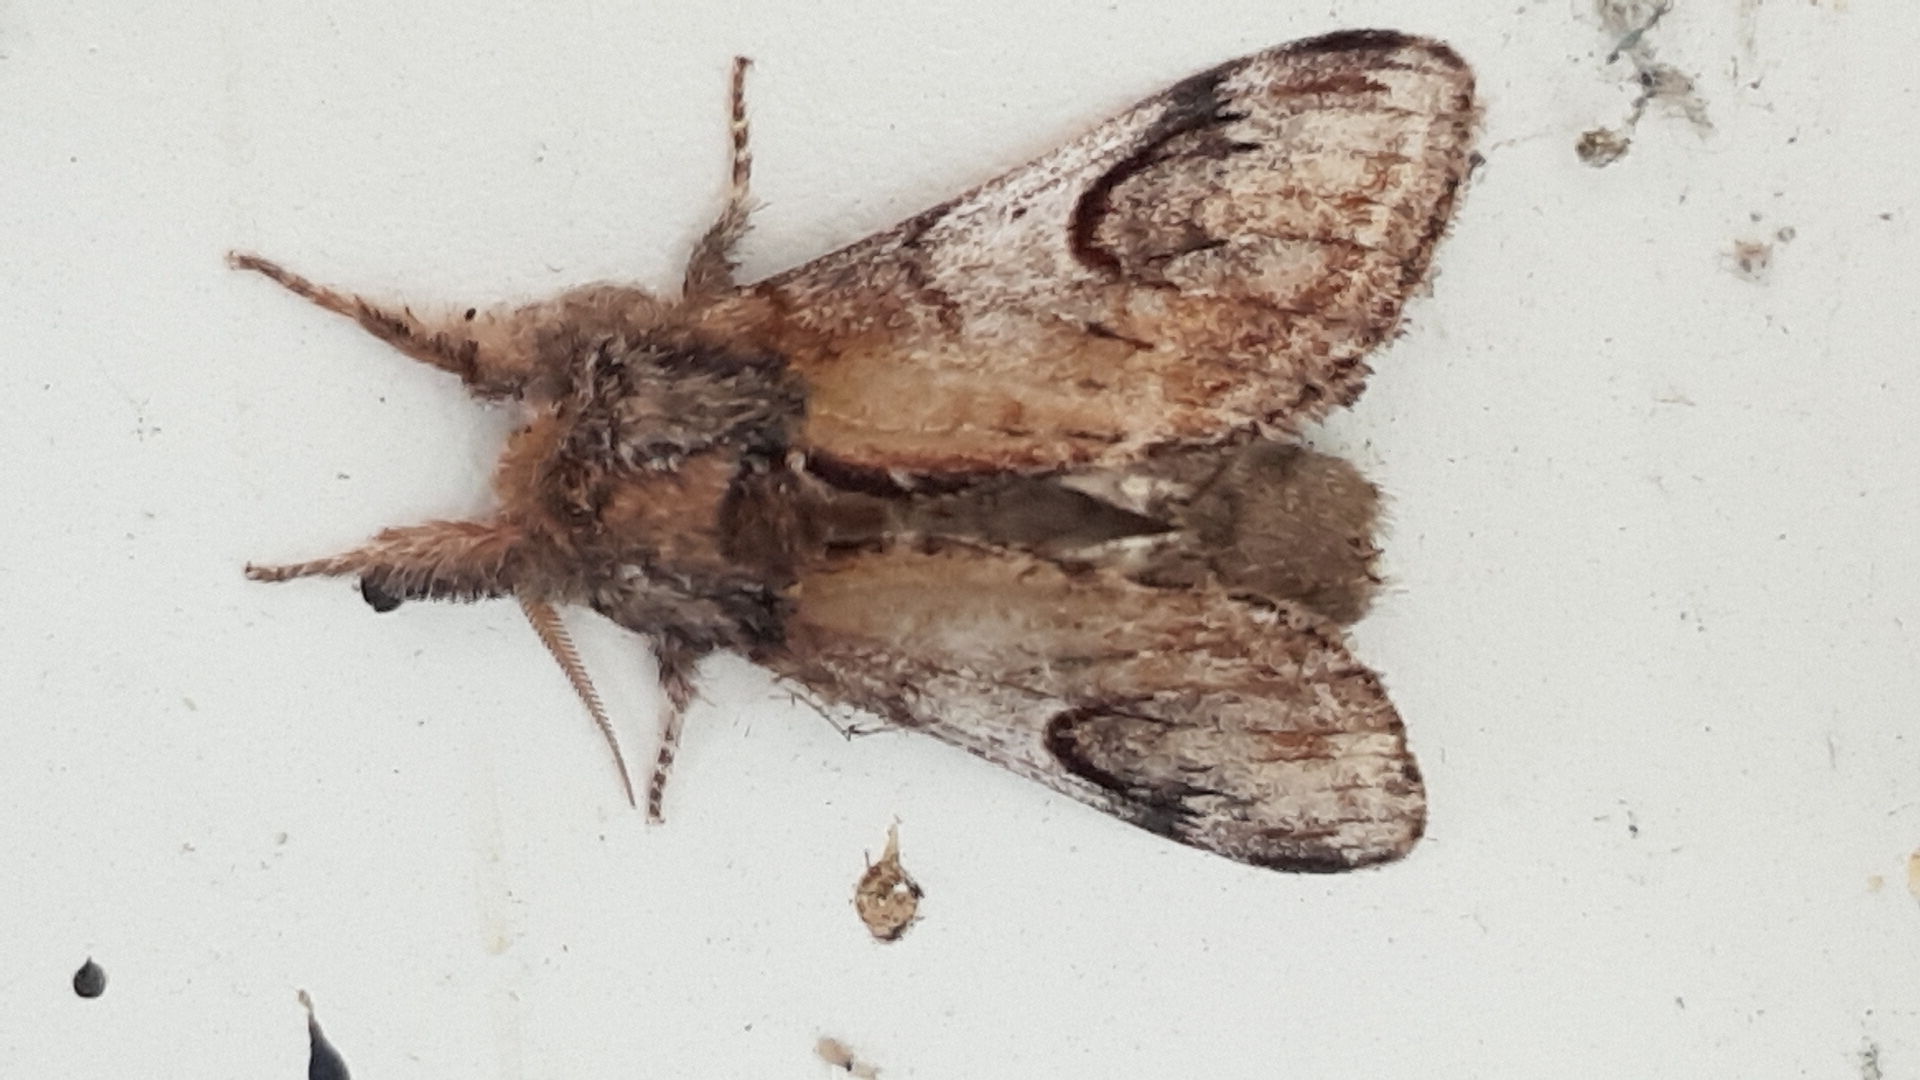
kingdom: Animalia
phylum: Arthropoda
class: Insecta
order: Lepidoptera
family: Notodontidae
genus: Notodonta
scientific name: Notodonta ziczac
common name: Pebble prominent
